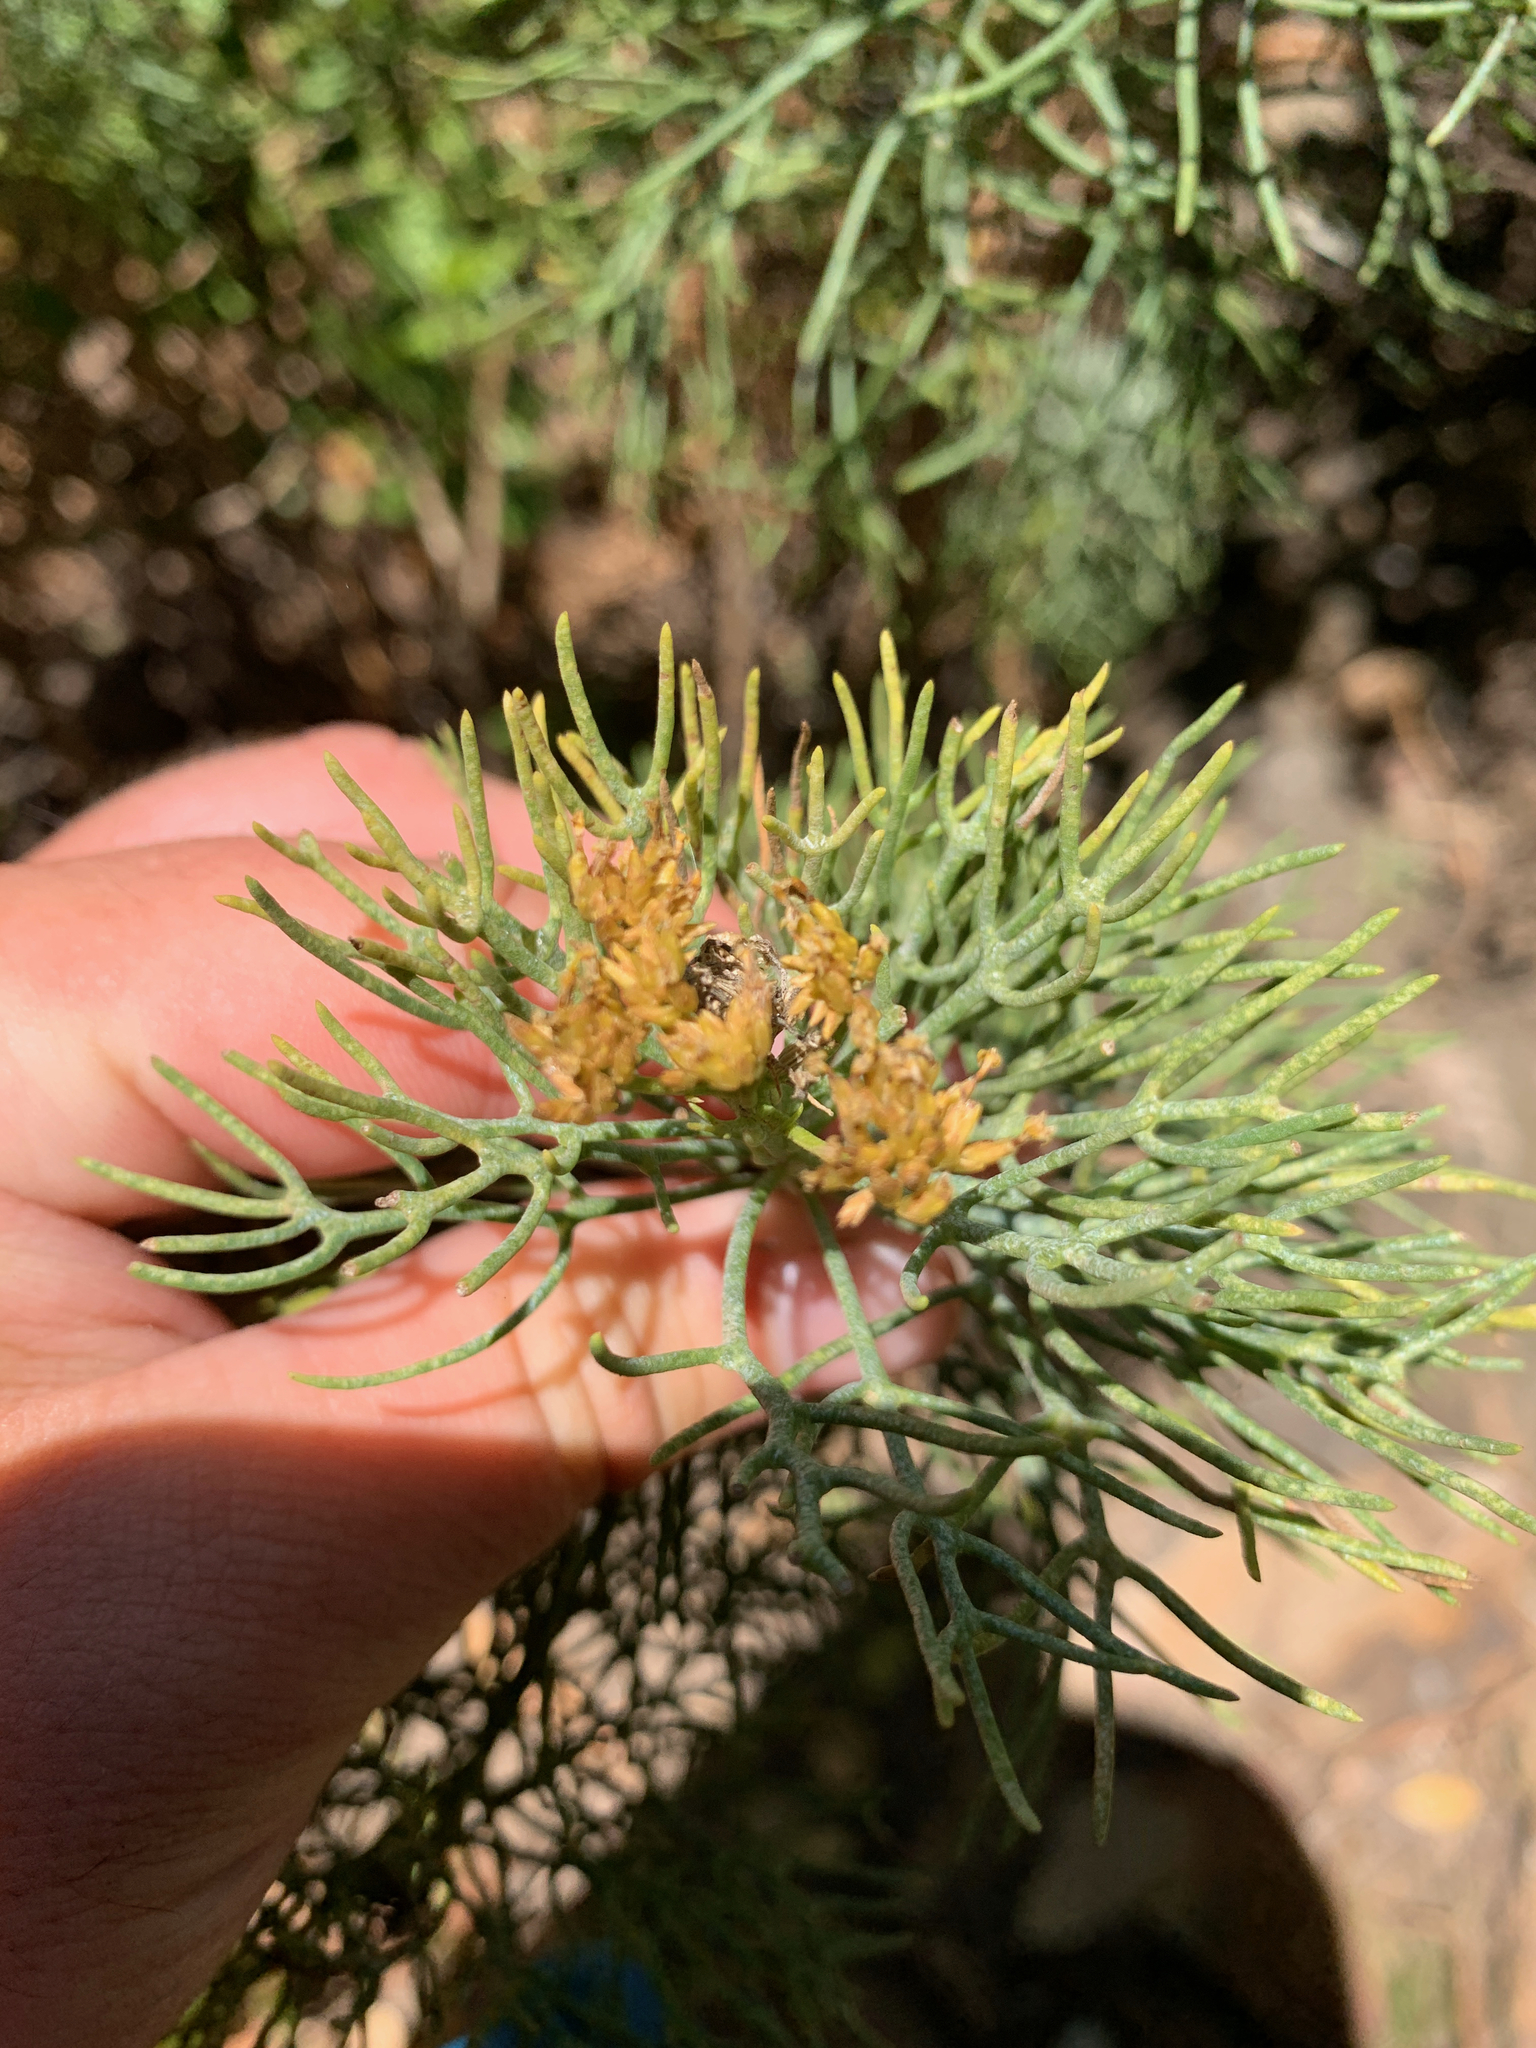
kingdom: Plantae
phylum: Tracheophyta
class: Magnoliopsida
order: Asterales
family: Asteraceae
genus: Hymenolepis
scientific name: Hymenolepis crithmifolia
